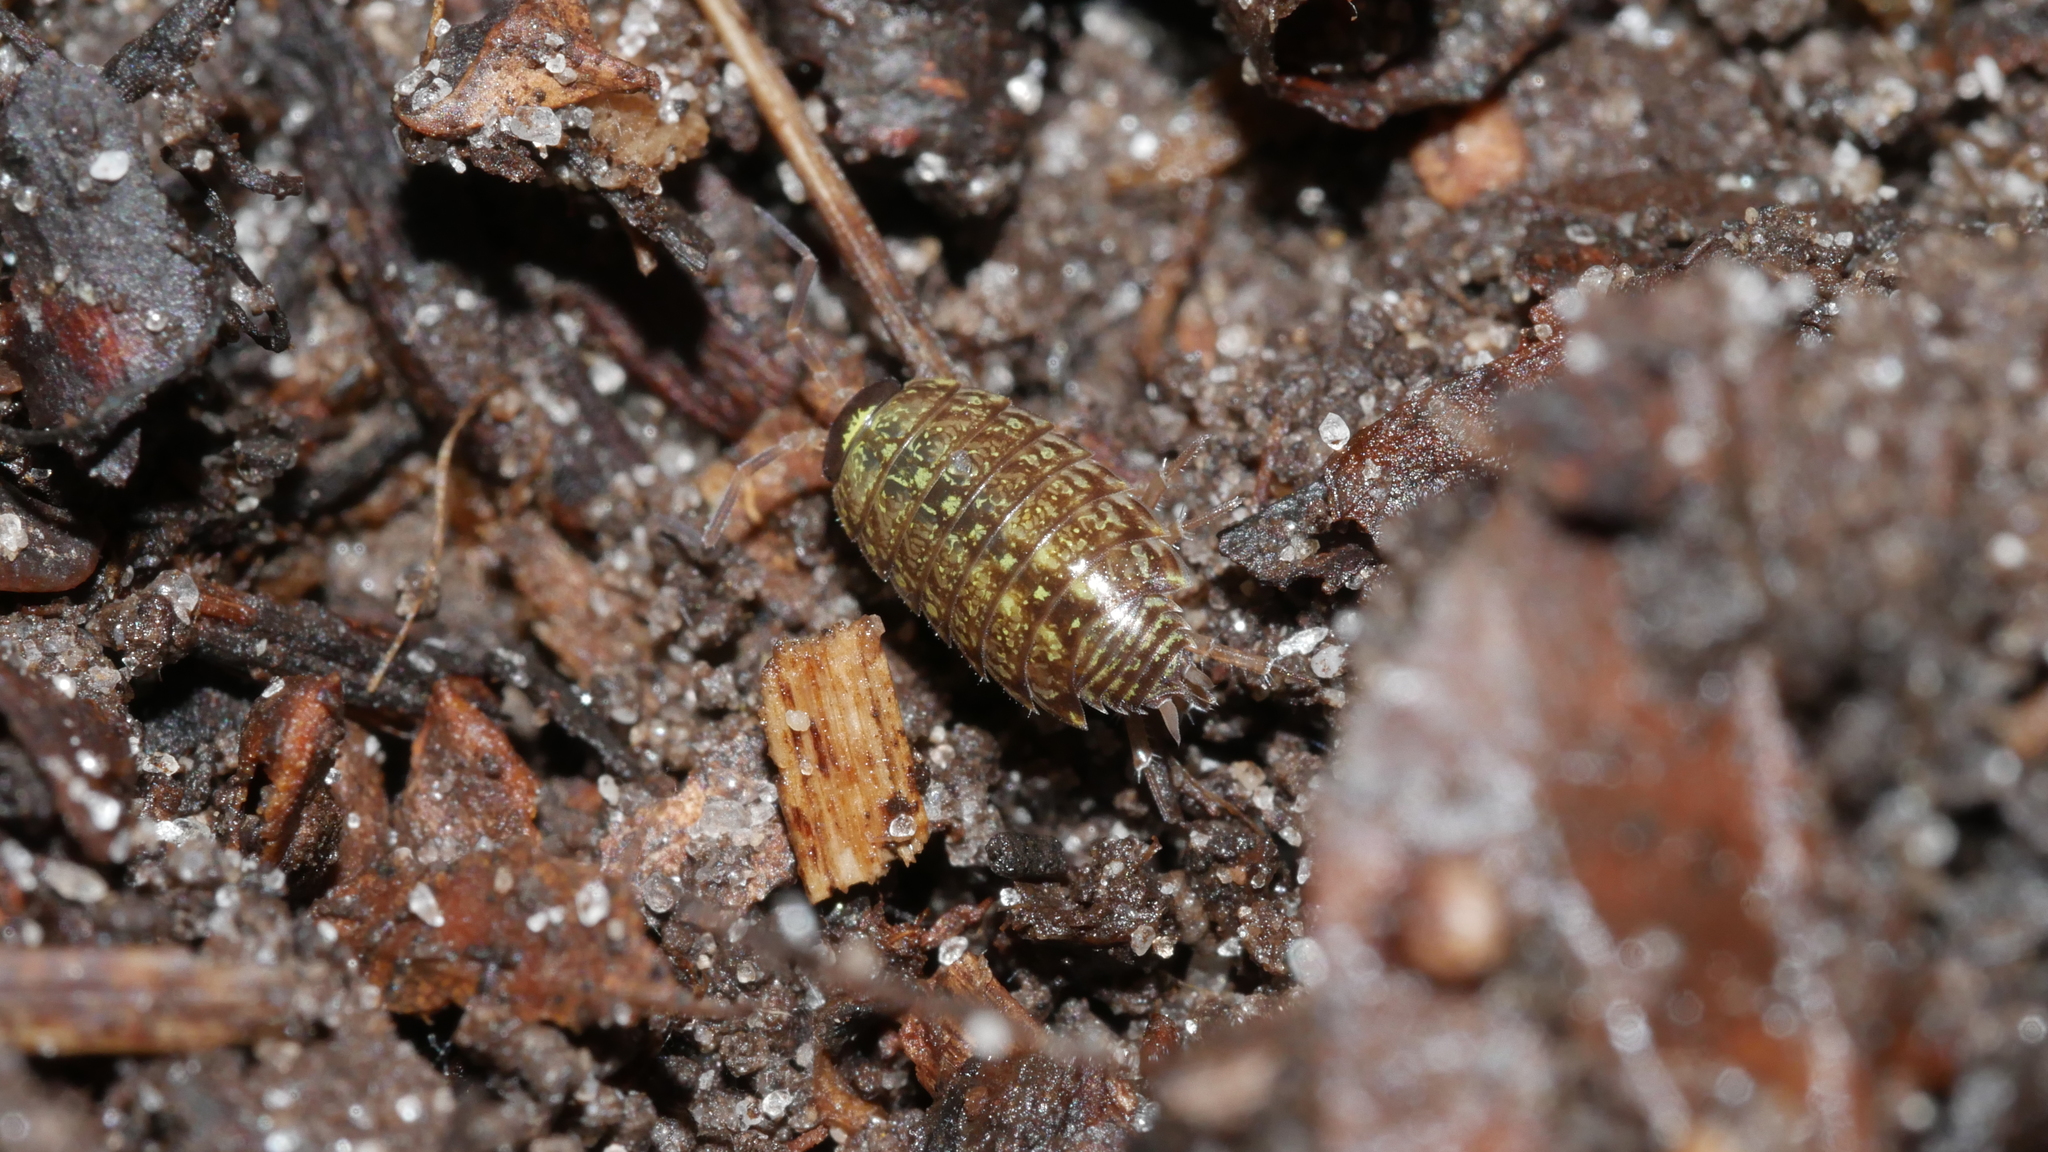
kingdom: Animalia
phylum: Arthropoda
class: Malacostraca
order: Isopoda
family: Philosciidae
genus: Philoscia
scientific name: Philoscia muscorum
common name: Common striped woodlouse
